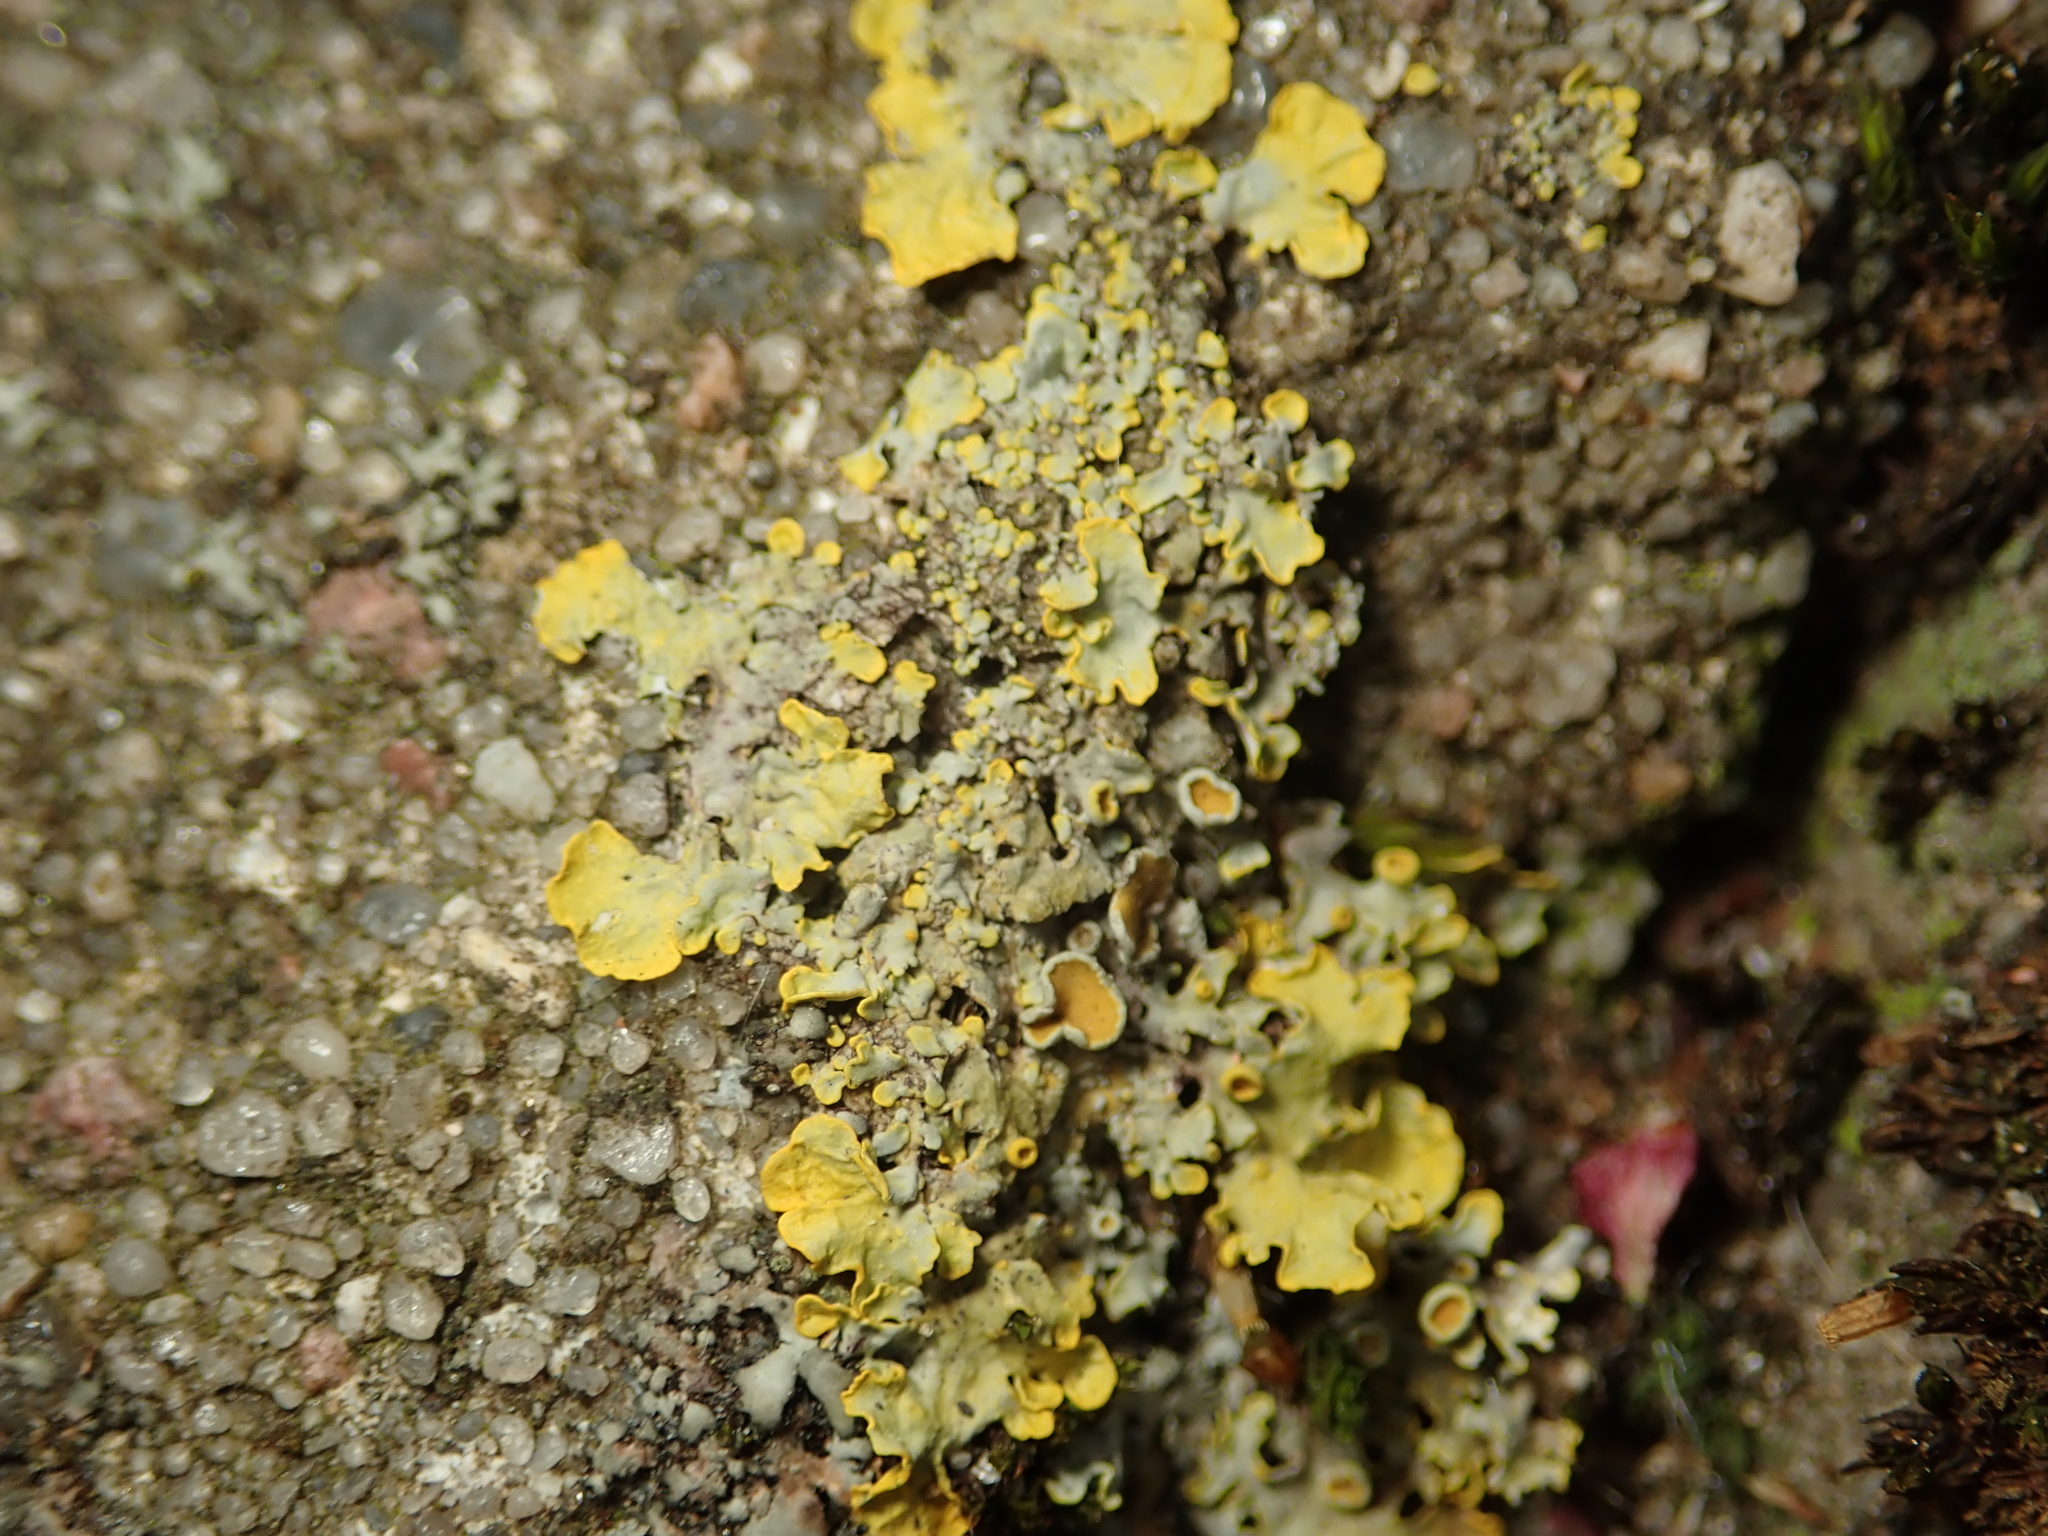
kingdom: Fungi
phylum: Ascomycota
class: Lecanoromycetes
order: Teloschistales
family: Teloschistaceae
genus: Xanthoria
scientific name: Xanthoria parietina
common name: Common orange lichen
